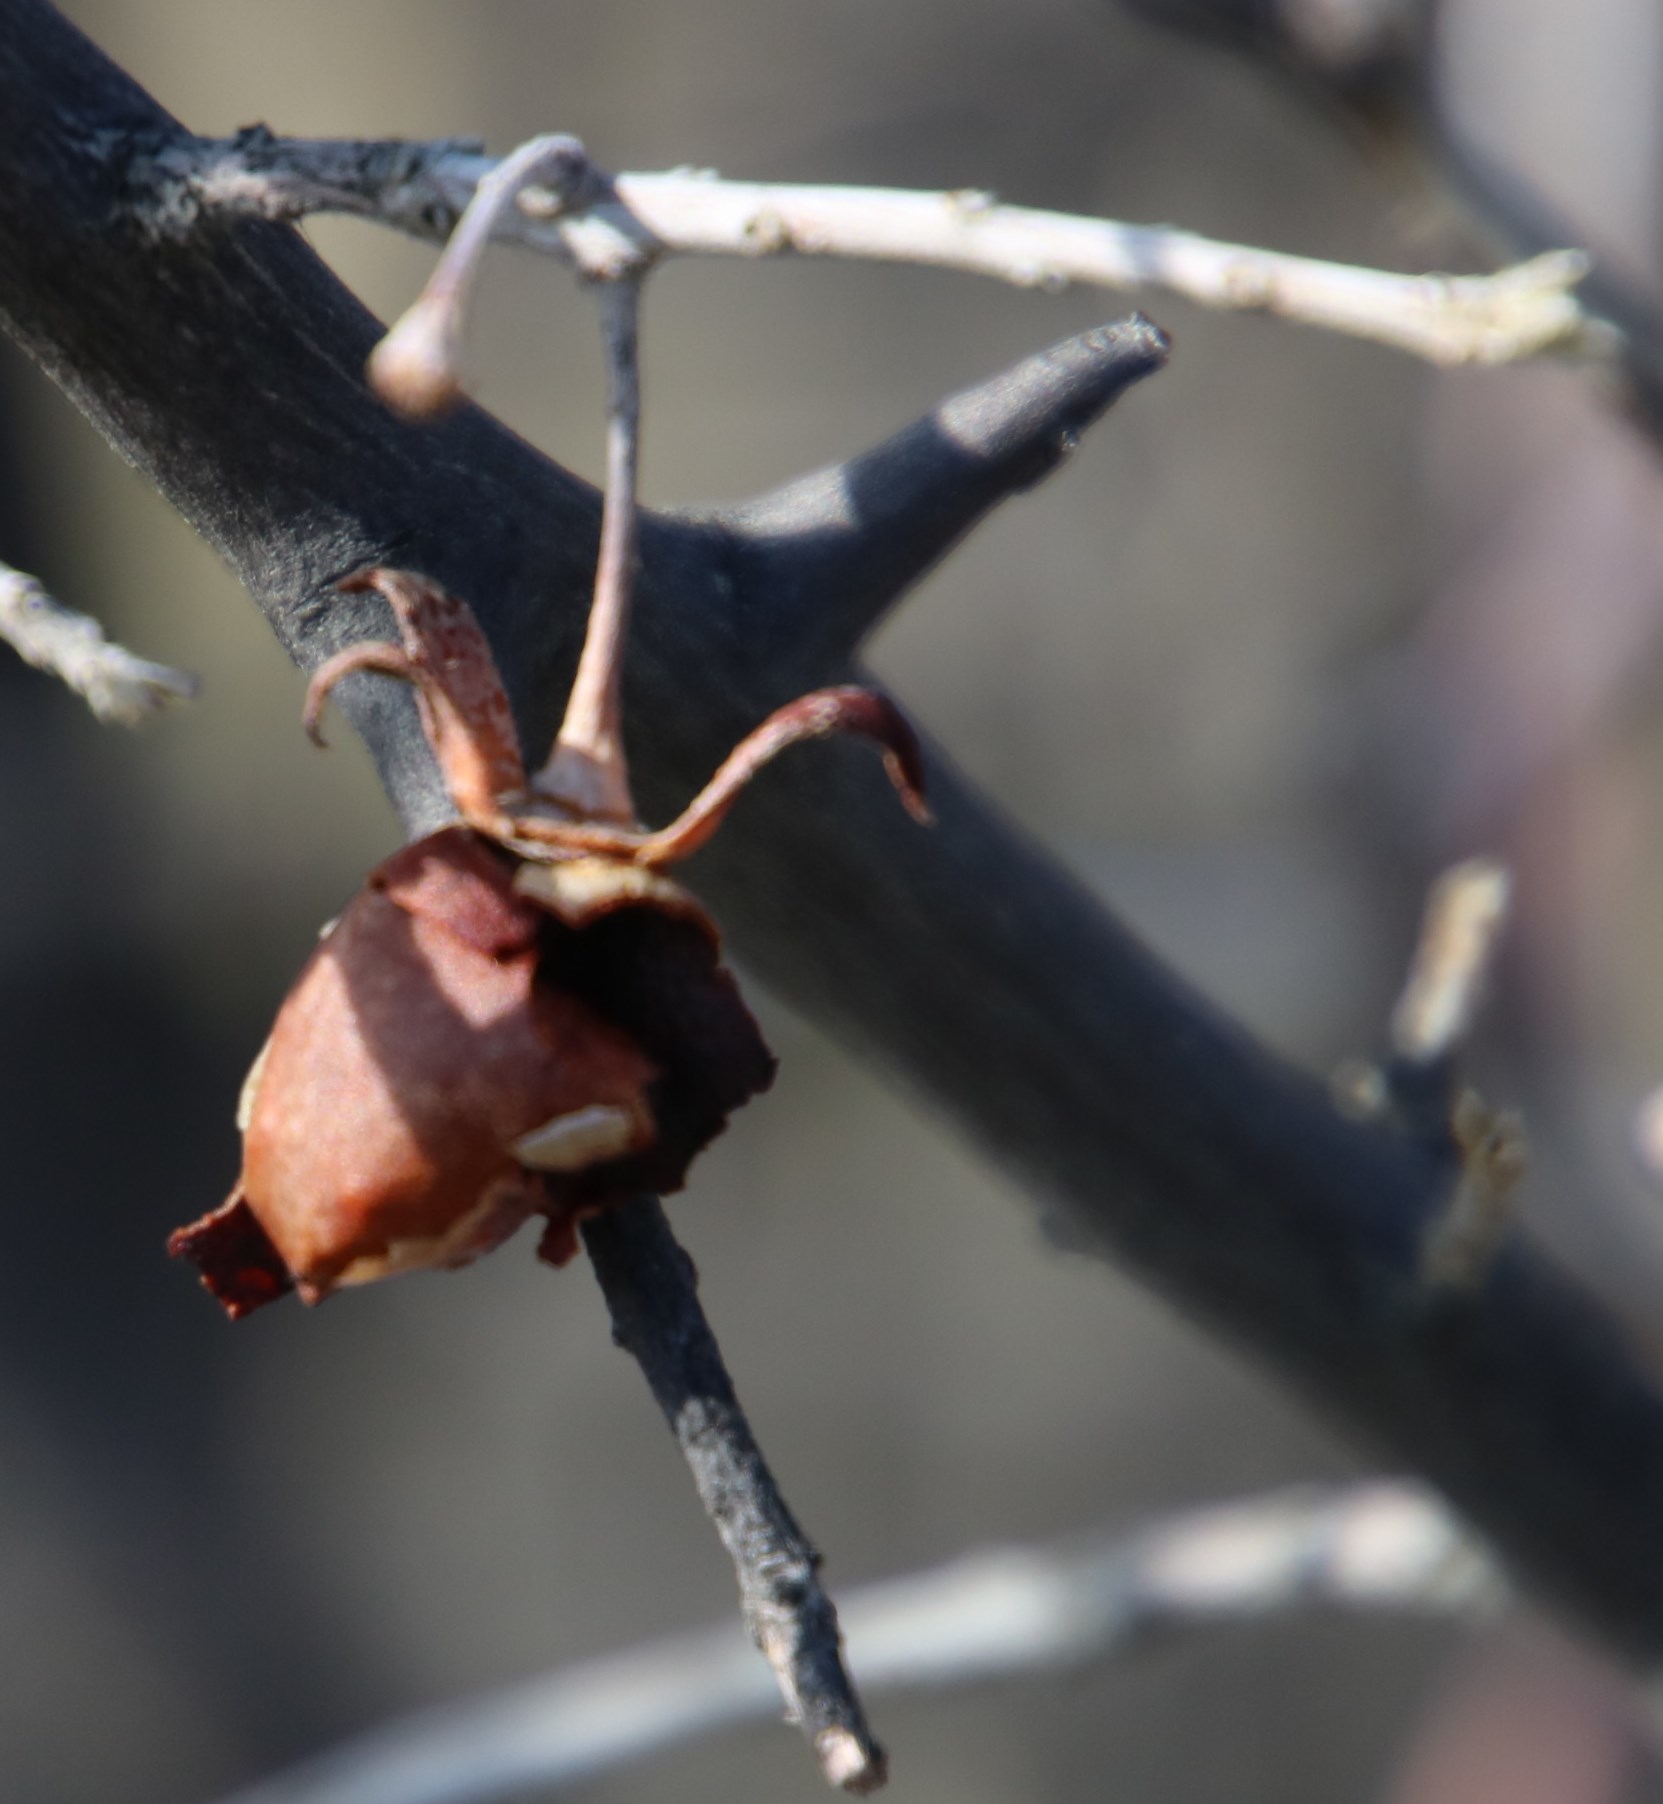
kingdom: Plantae
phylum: Tracheophyta
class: Magnoliopsida
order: Ericales
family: Ebenaceae
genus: Diospyros
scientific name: Diospyros lycioides
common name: Red star apple
